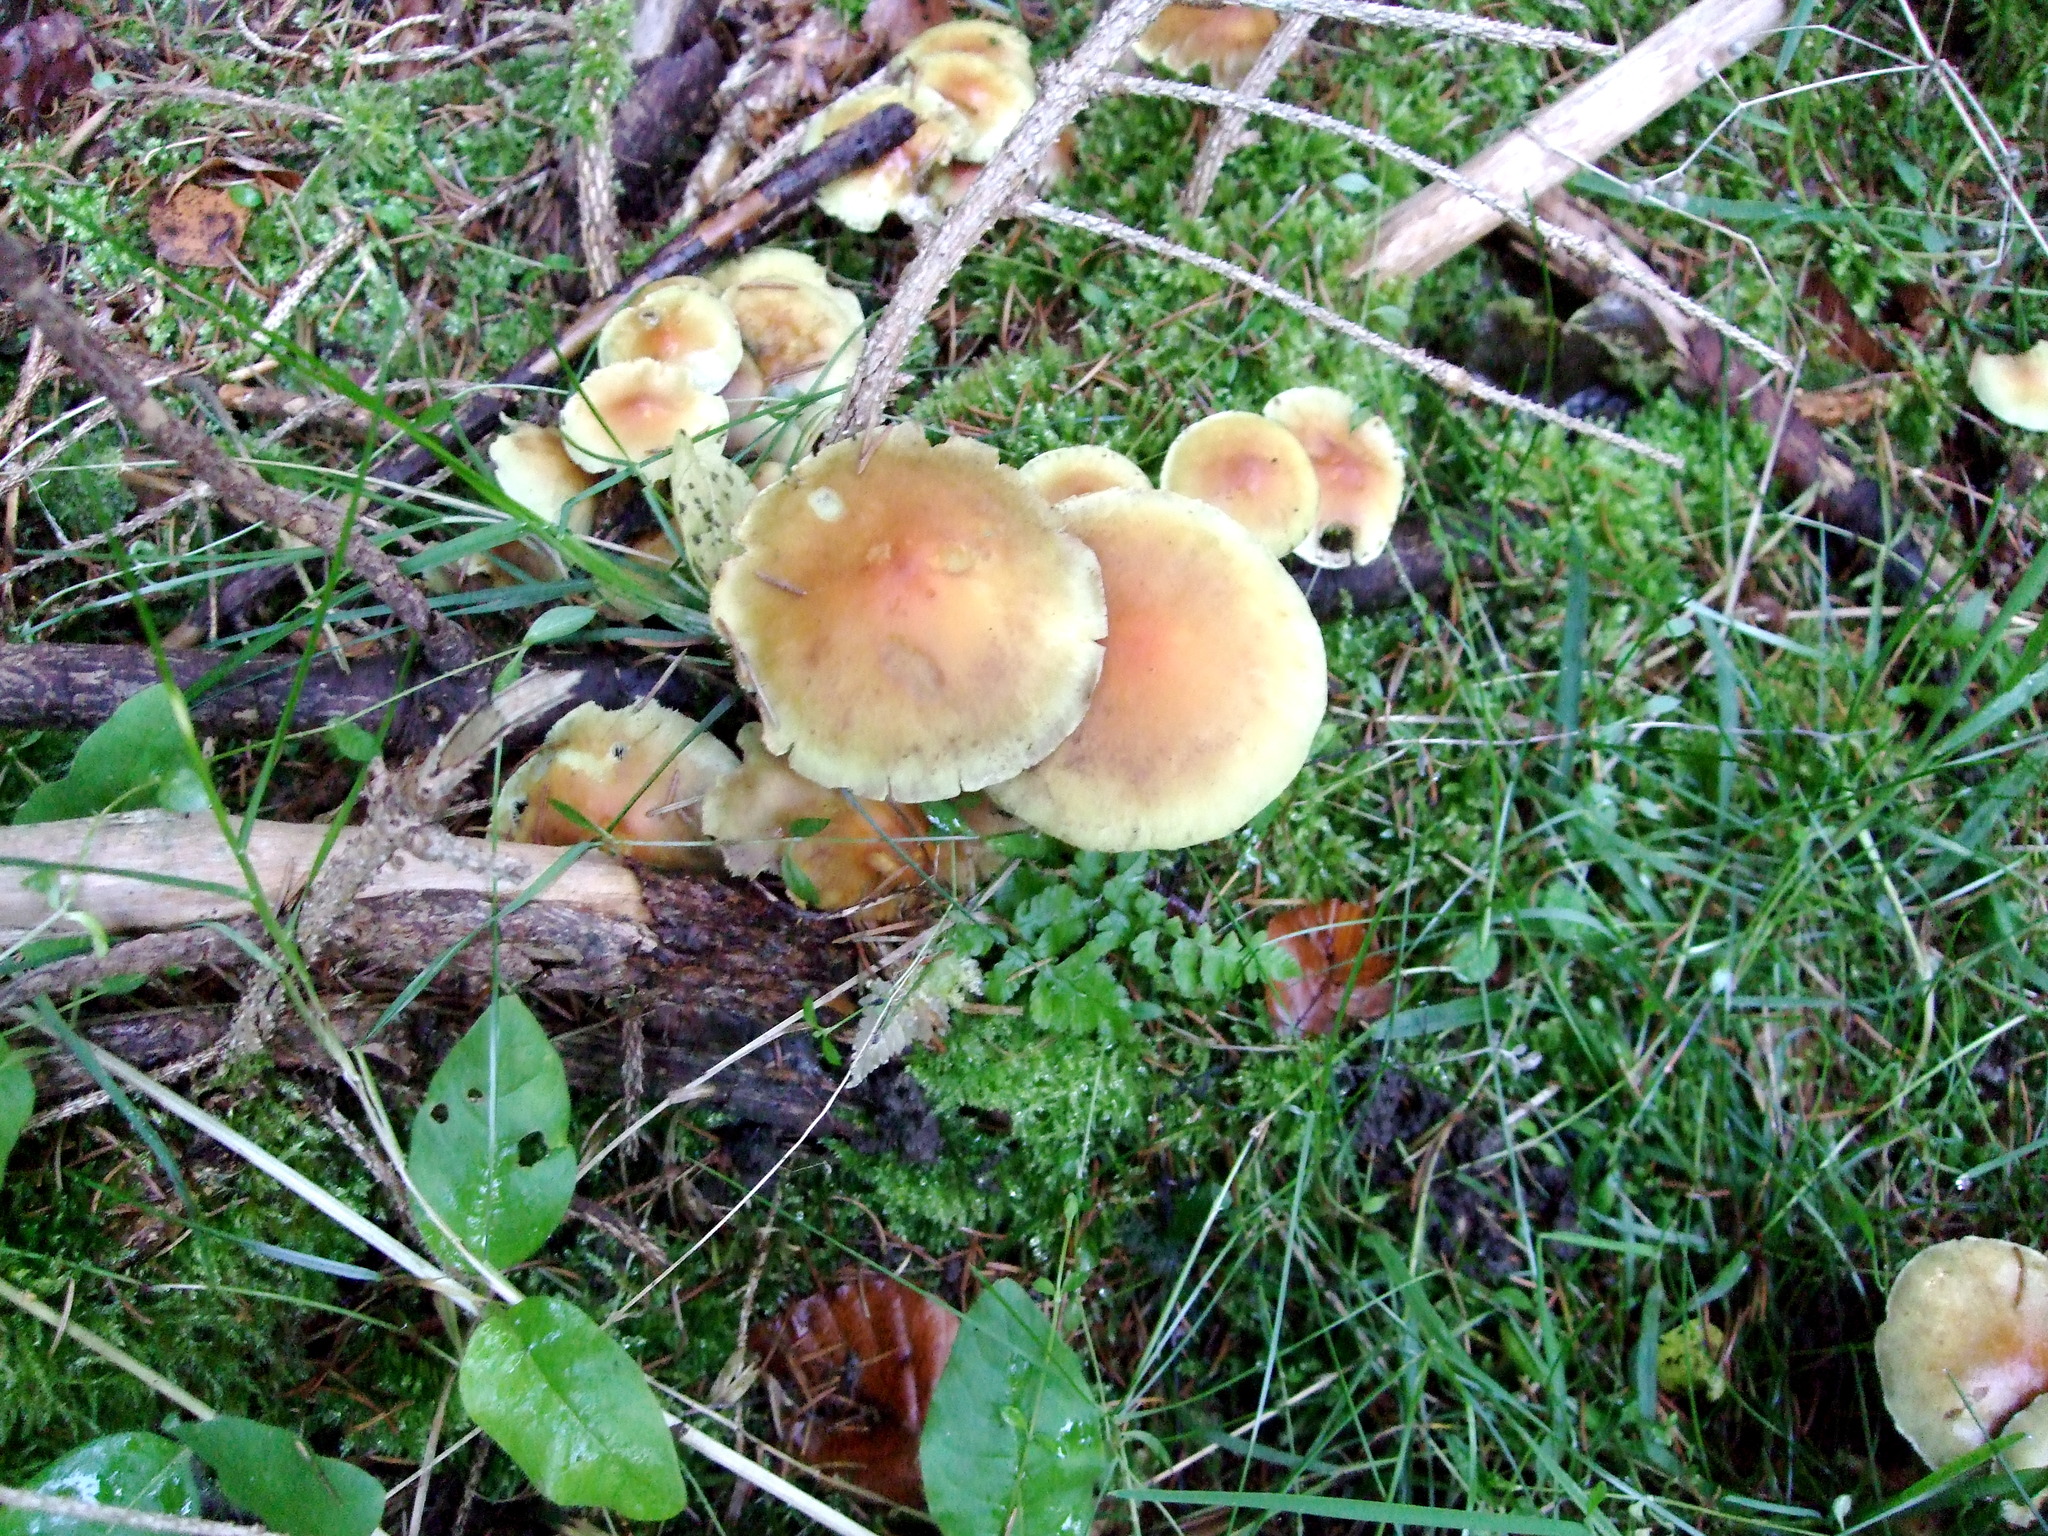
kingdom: Fungi
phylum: Basidiomycota
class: Agaricomycetes
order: Agaricales
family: Strophariaceae
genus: Hypholoma
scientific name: Hypholoma fasciculare
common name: Sulphur tuft
